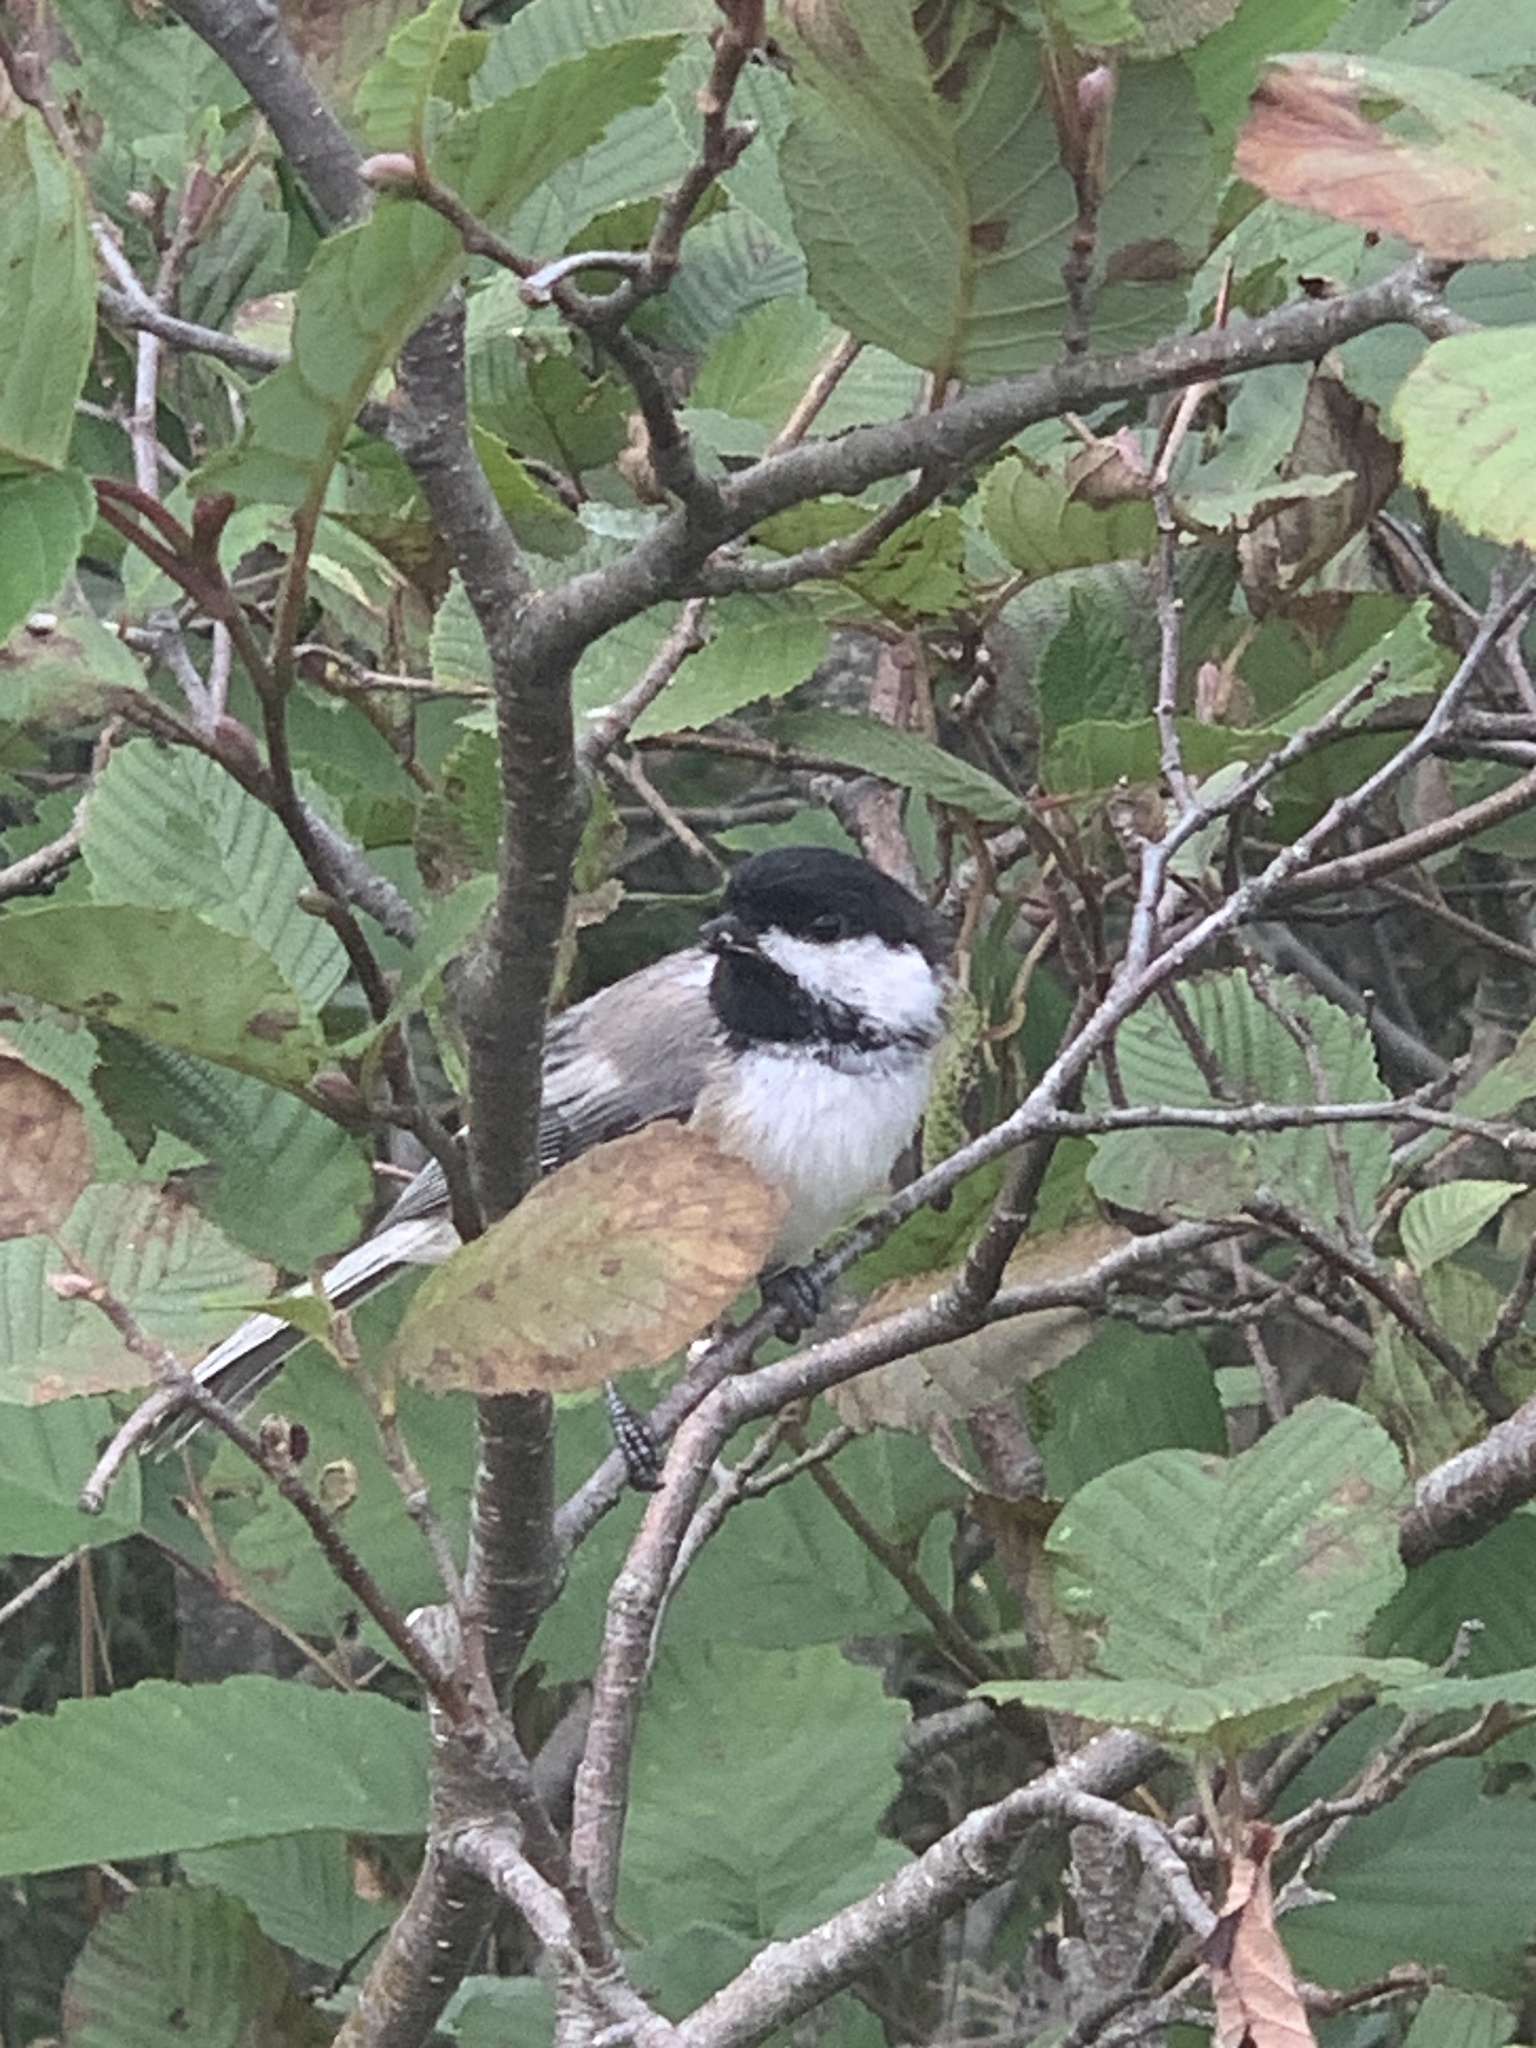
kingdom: Animalia
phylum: Chordata
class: Aves
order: Passeriformes
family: Paridae
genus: Poecile
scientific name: Poecile atricapillus
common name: Black-capped chickadee
